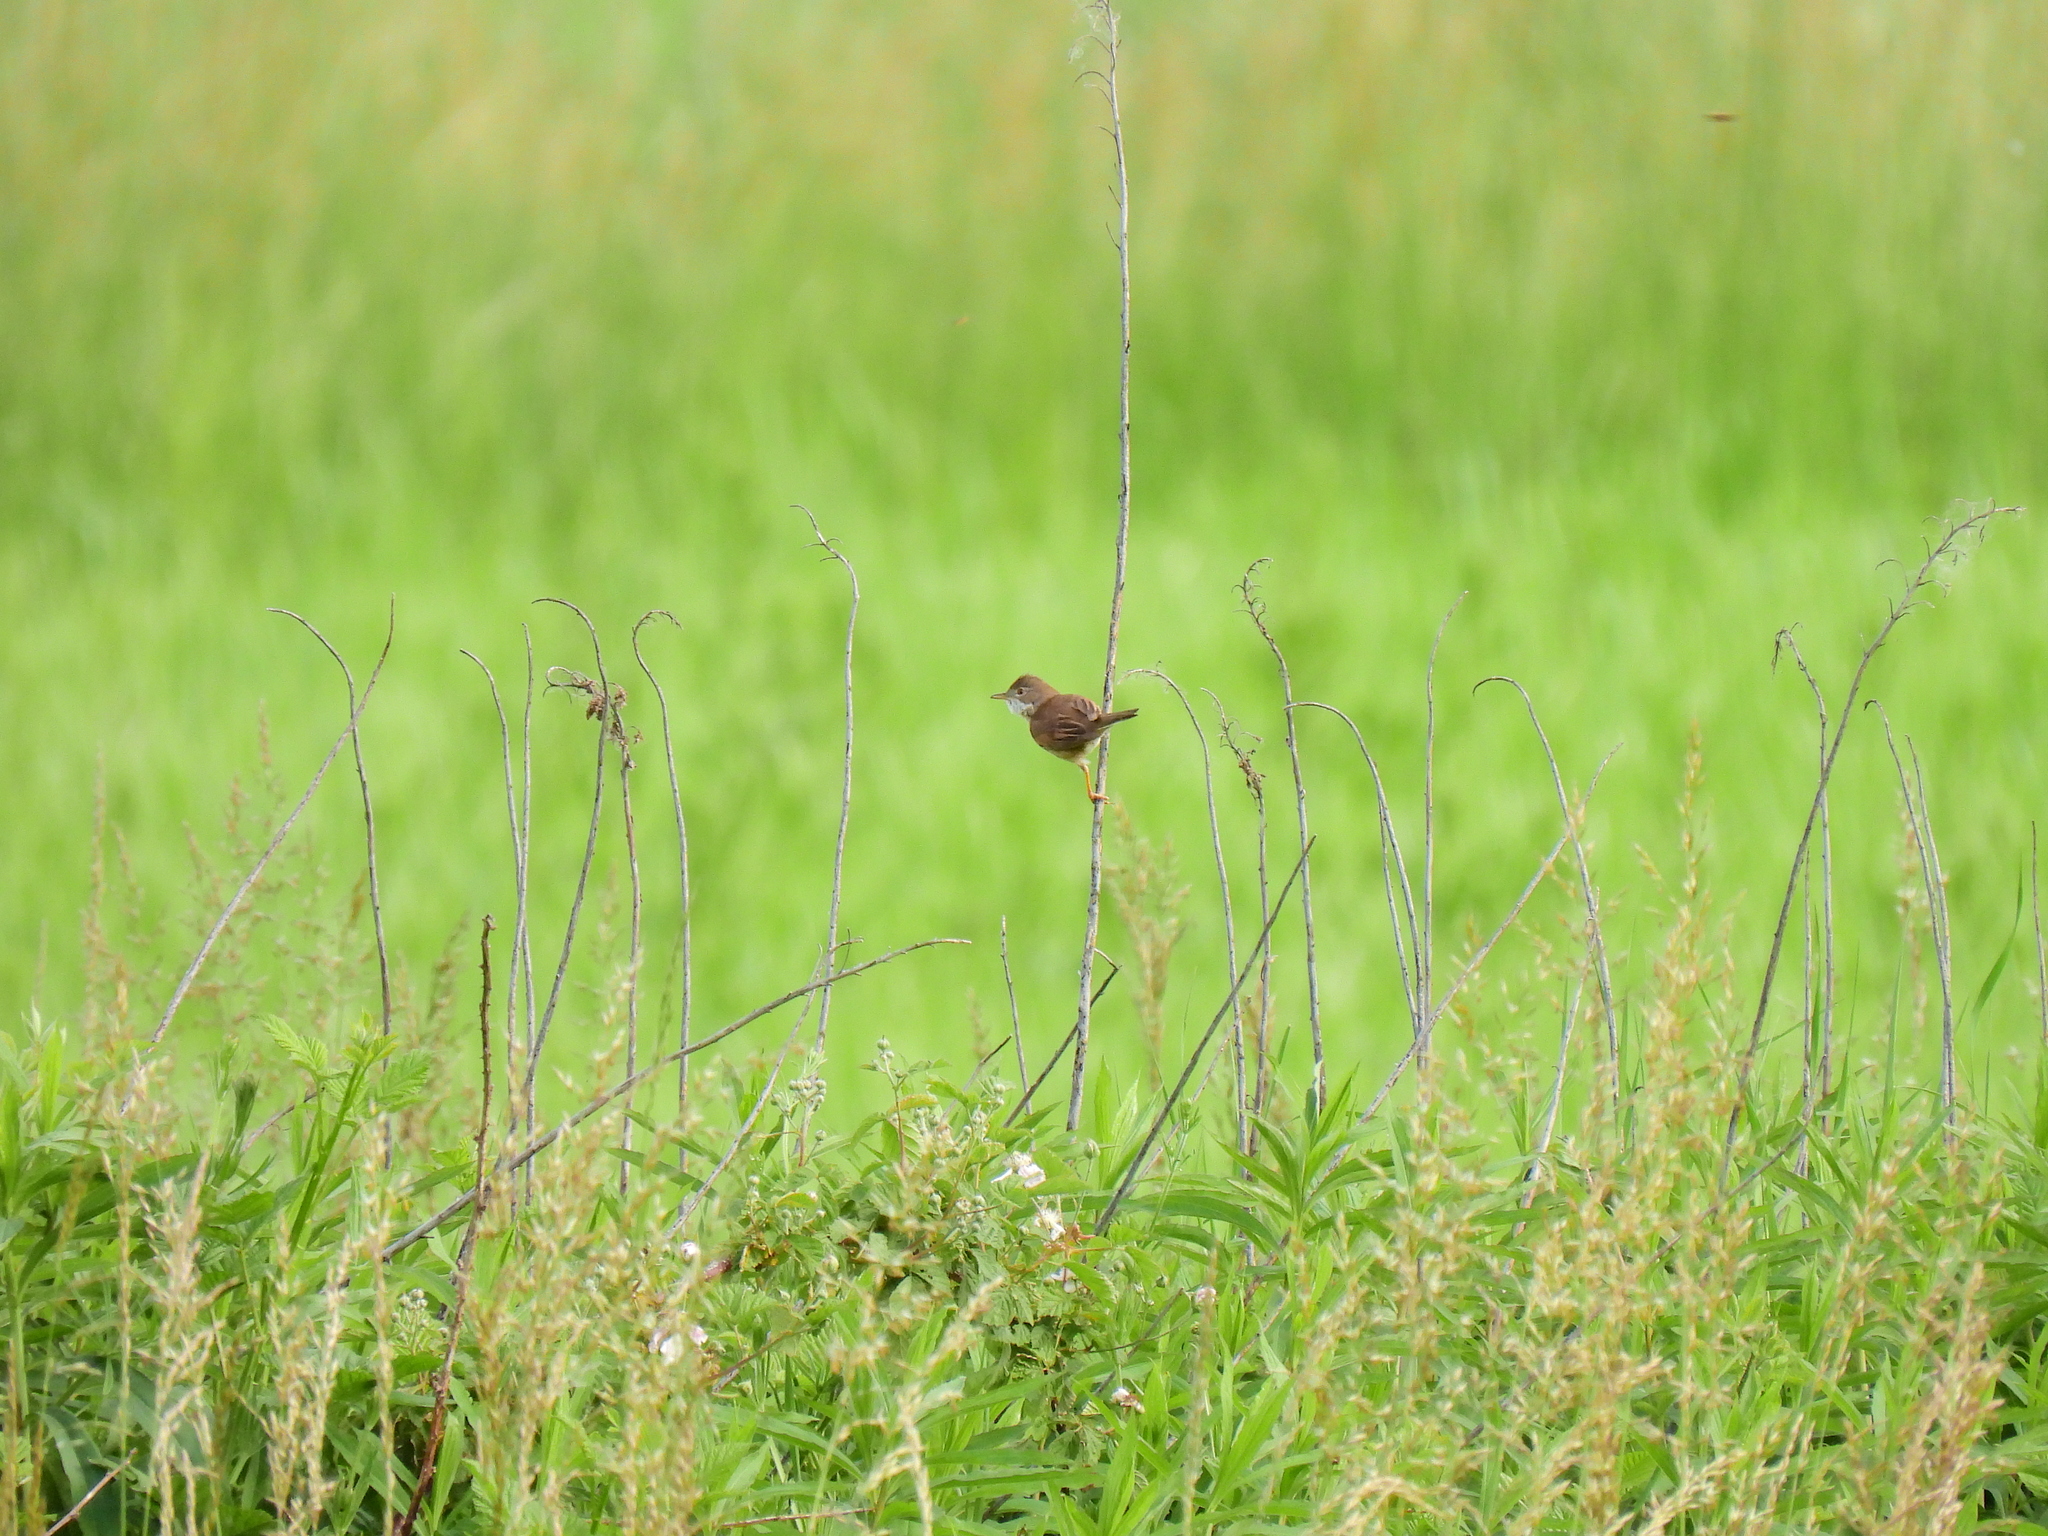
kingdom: Animalia
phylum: Chordata
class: Aves
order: Passeriformes
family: Sylviidae
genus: Sylvia
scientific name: Sylvia communis
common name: Common whitethroat
